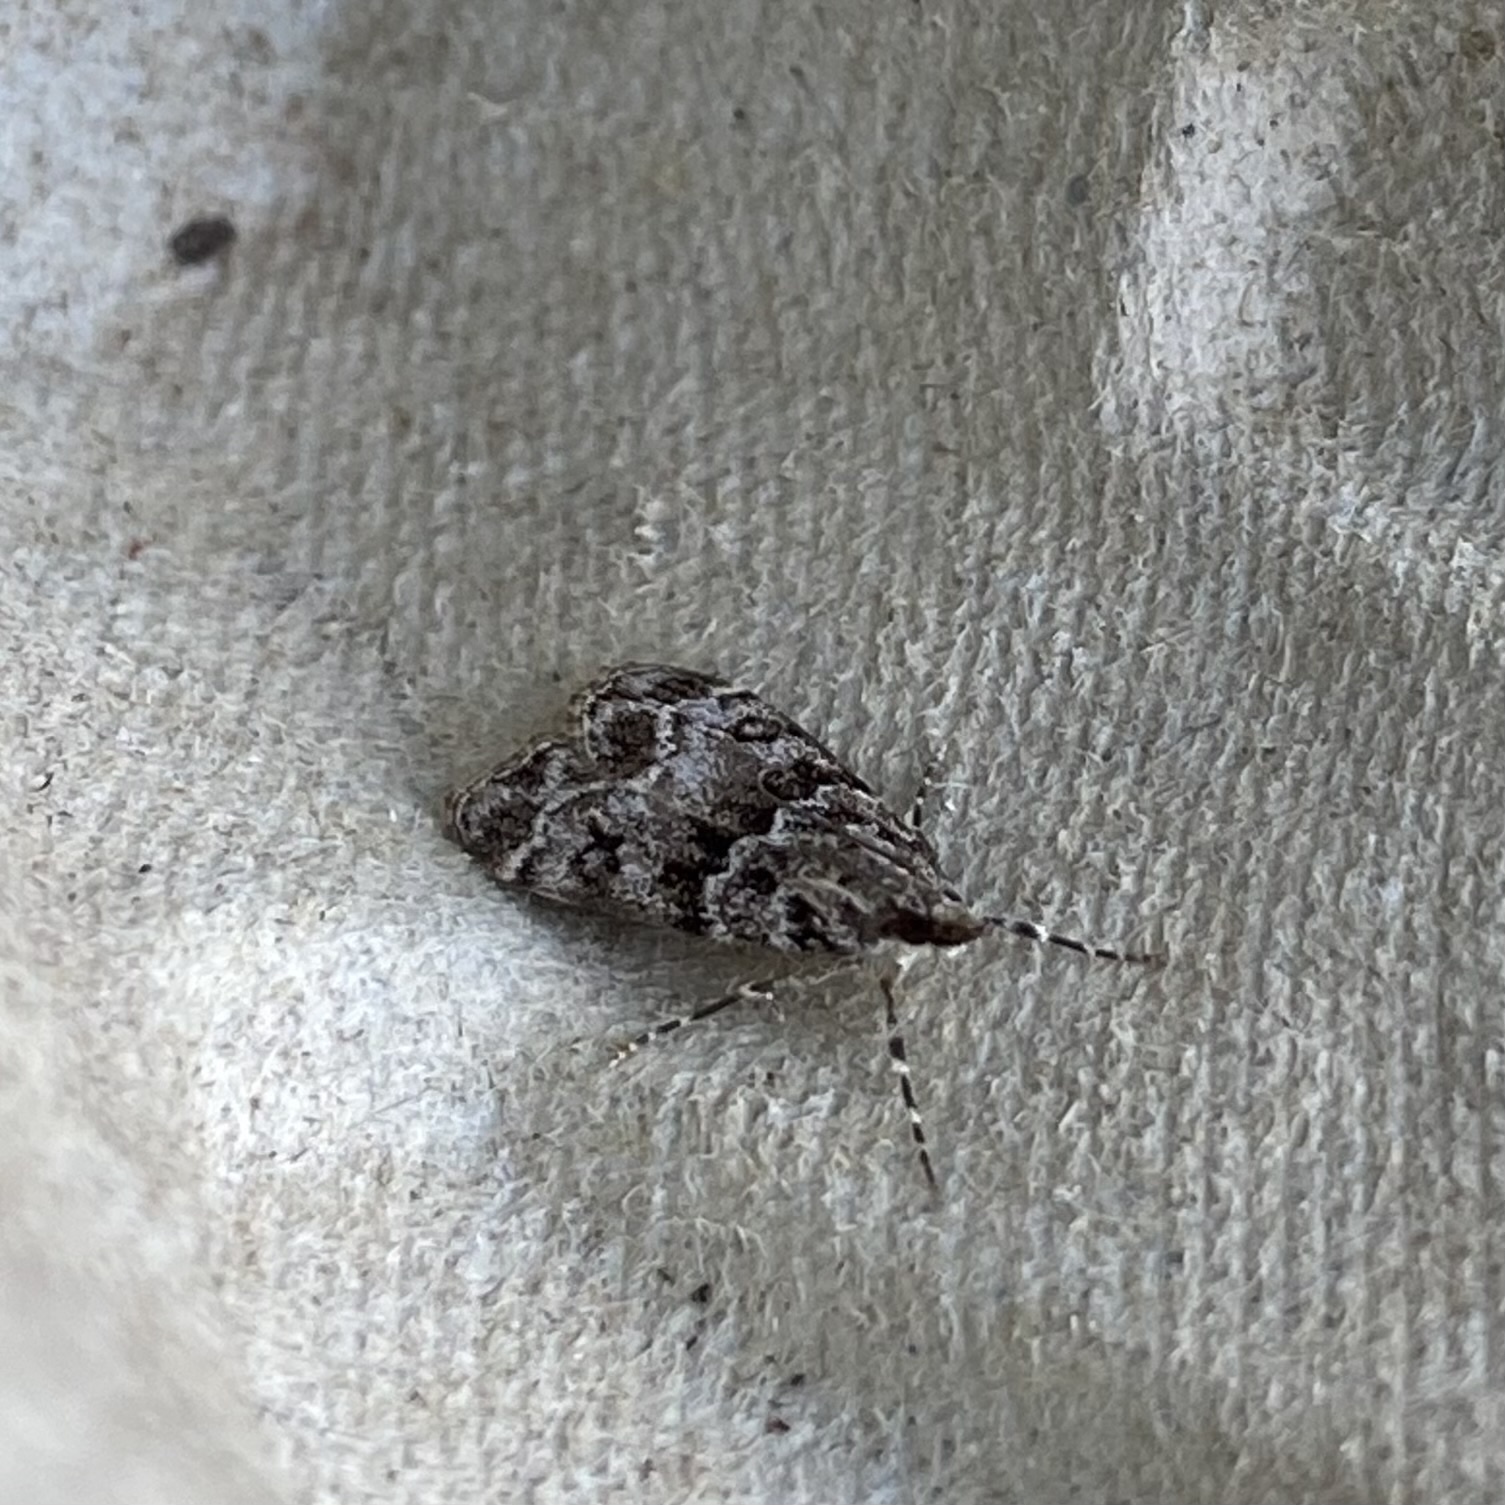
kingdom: Animalia
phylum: Arthropoda
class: Insecta
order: Lepidoptera
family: Crambidae
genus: Eudonia
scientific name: Eudonia mercurella
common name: Small grey
